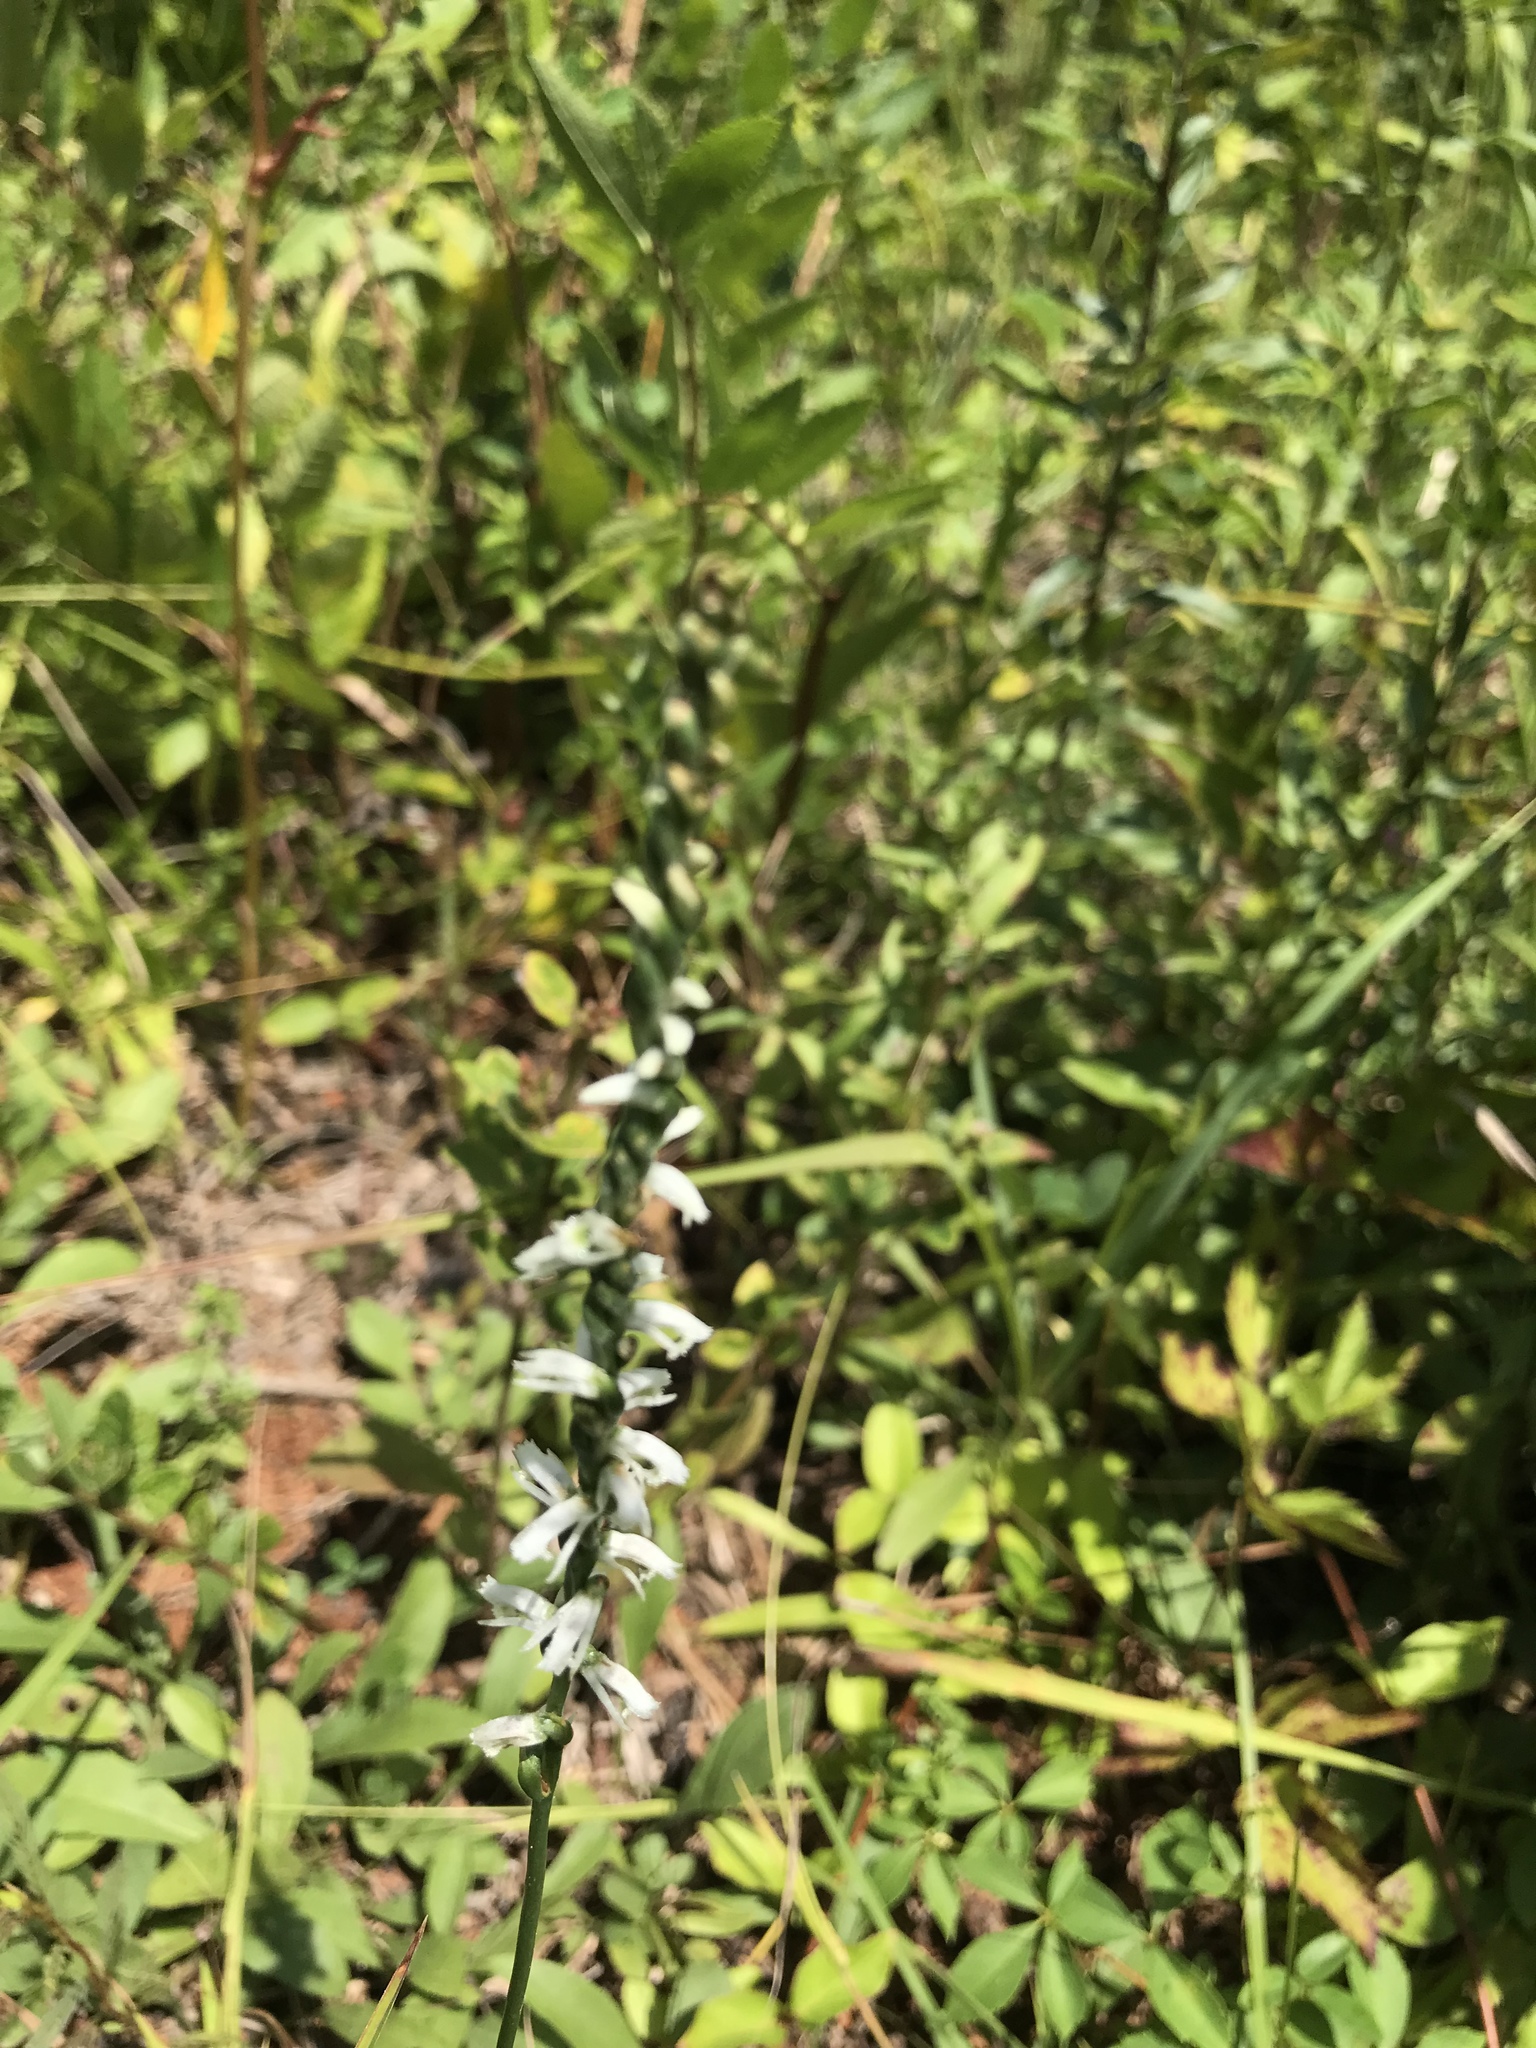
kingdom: Plantae
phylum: Tracheophyta
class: Liliopsida
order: Asparagales
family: Orchidaceae
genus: Spiranthes
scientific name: Spiranthes lacera
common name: Northern slender ladies'-tresses
